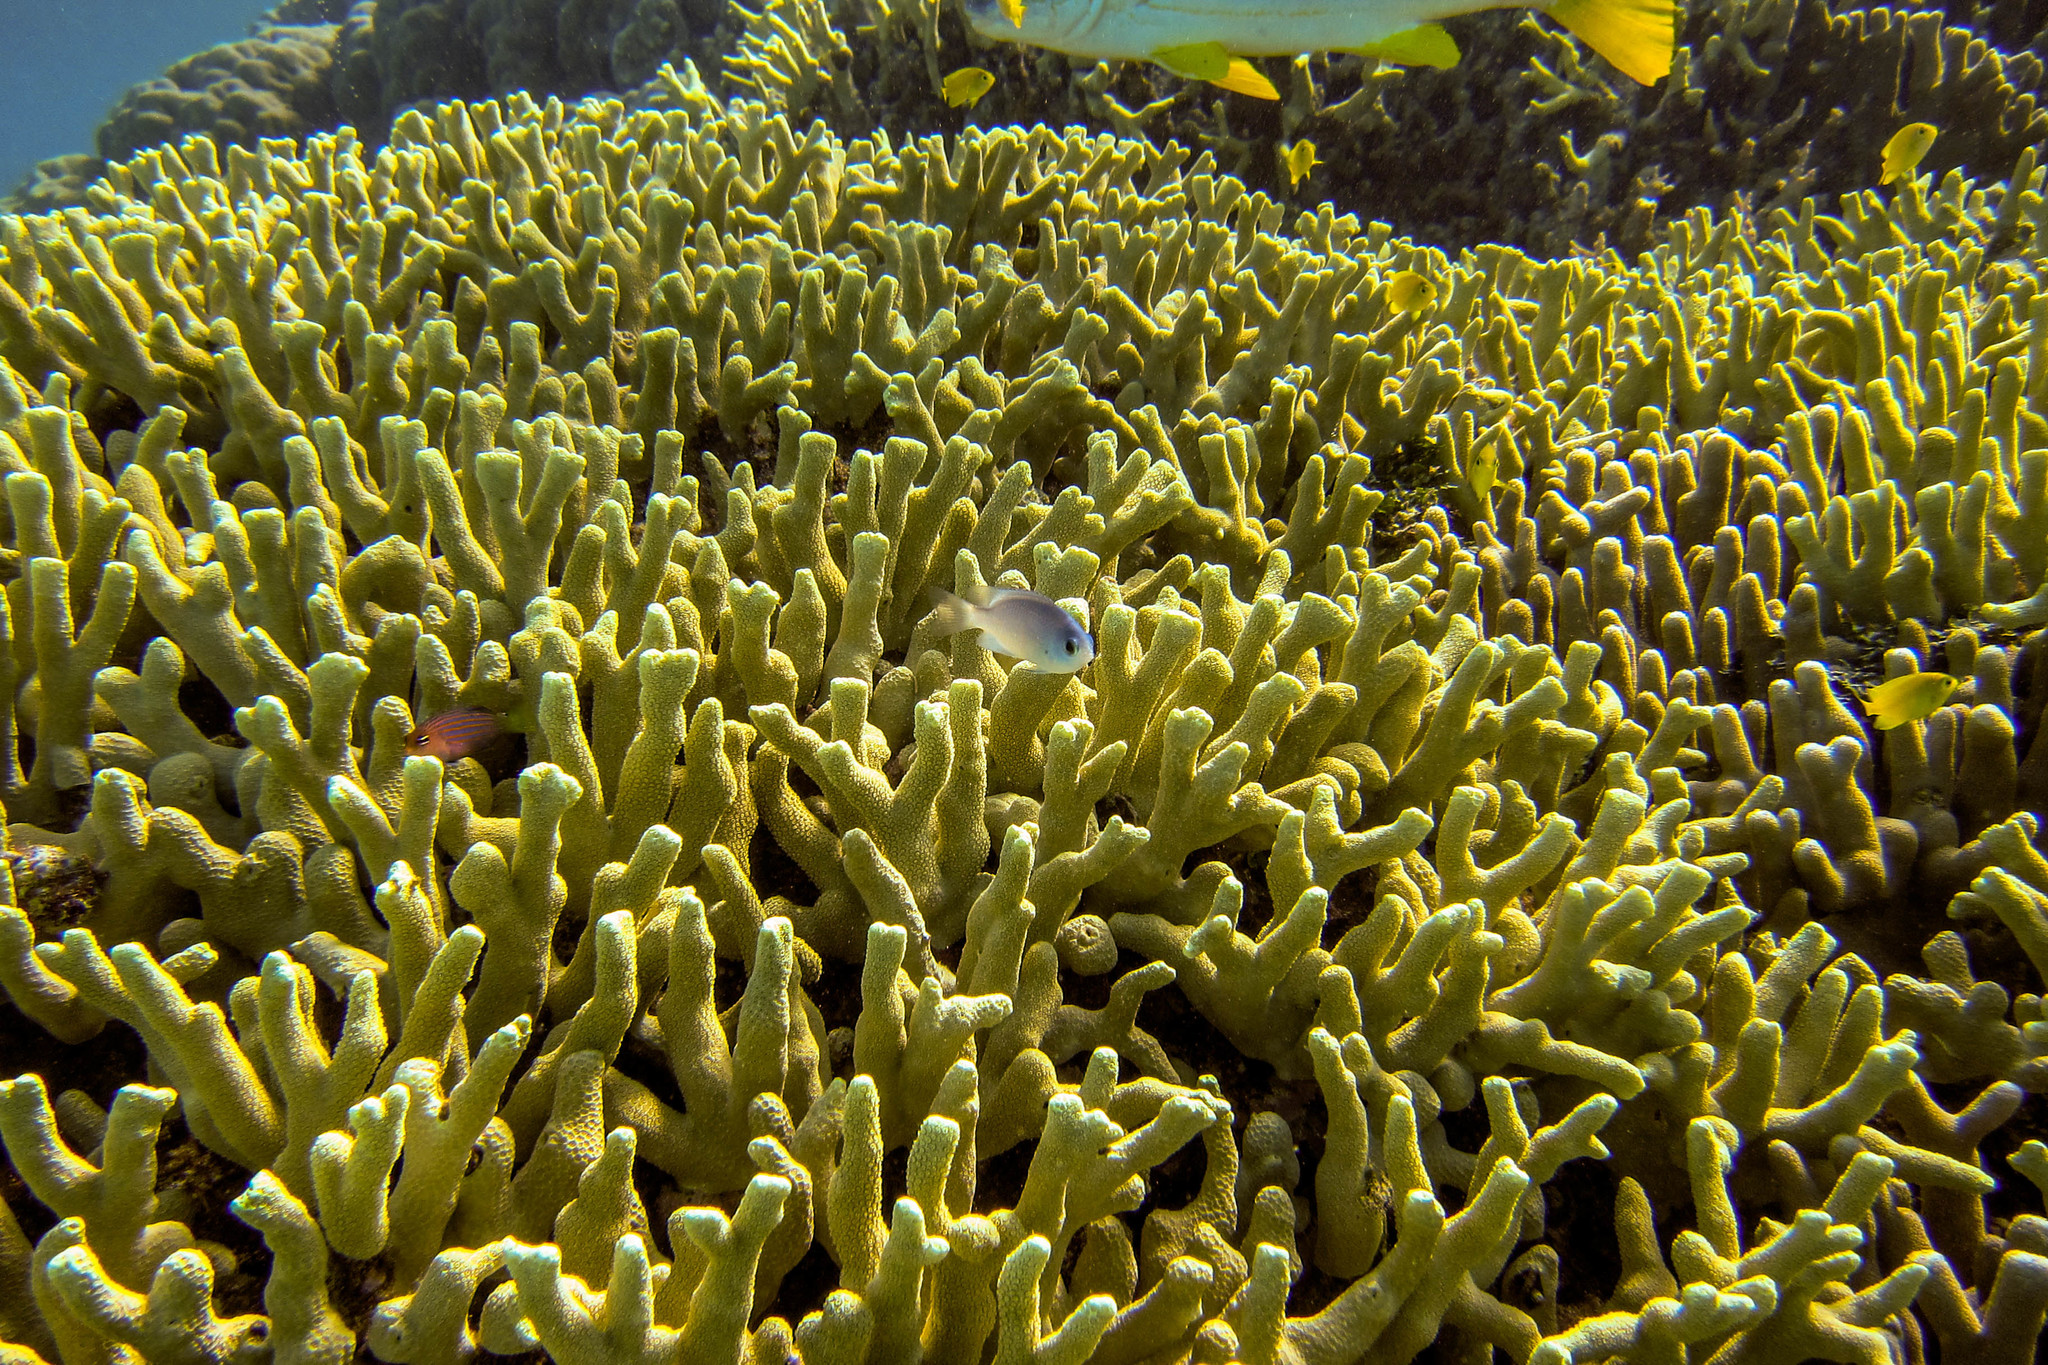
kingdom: Animalia
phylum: Chordata
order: Perciformes
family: Pomacentridae
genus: Chrysiptera
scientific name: Chrysiptera glauca
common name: Grey demoiselle
